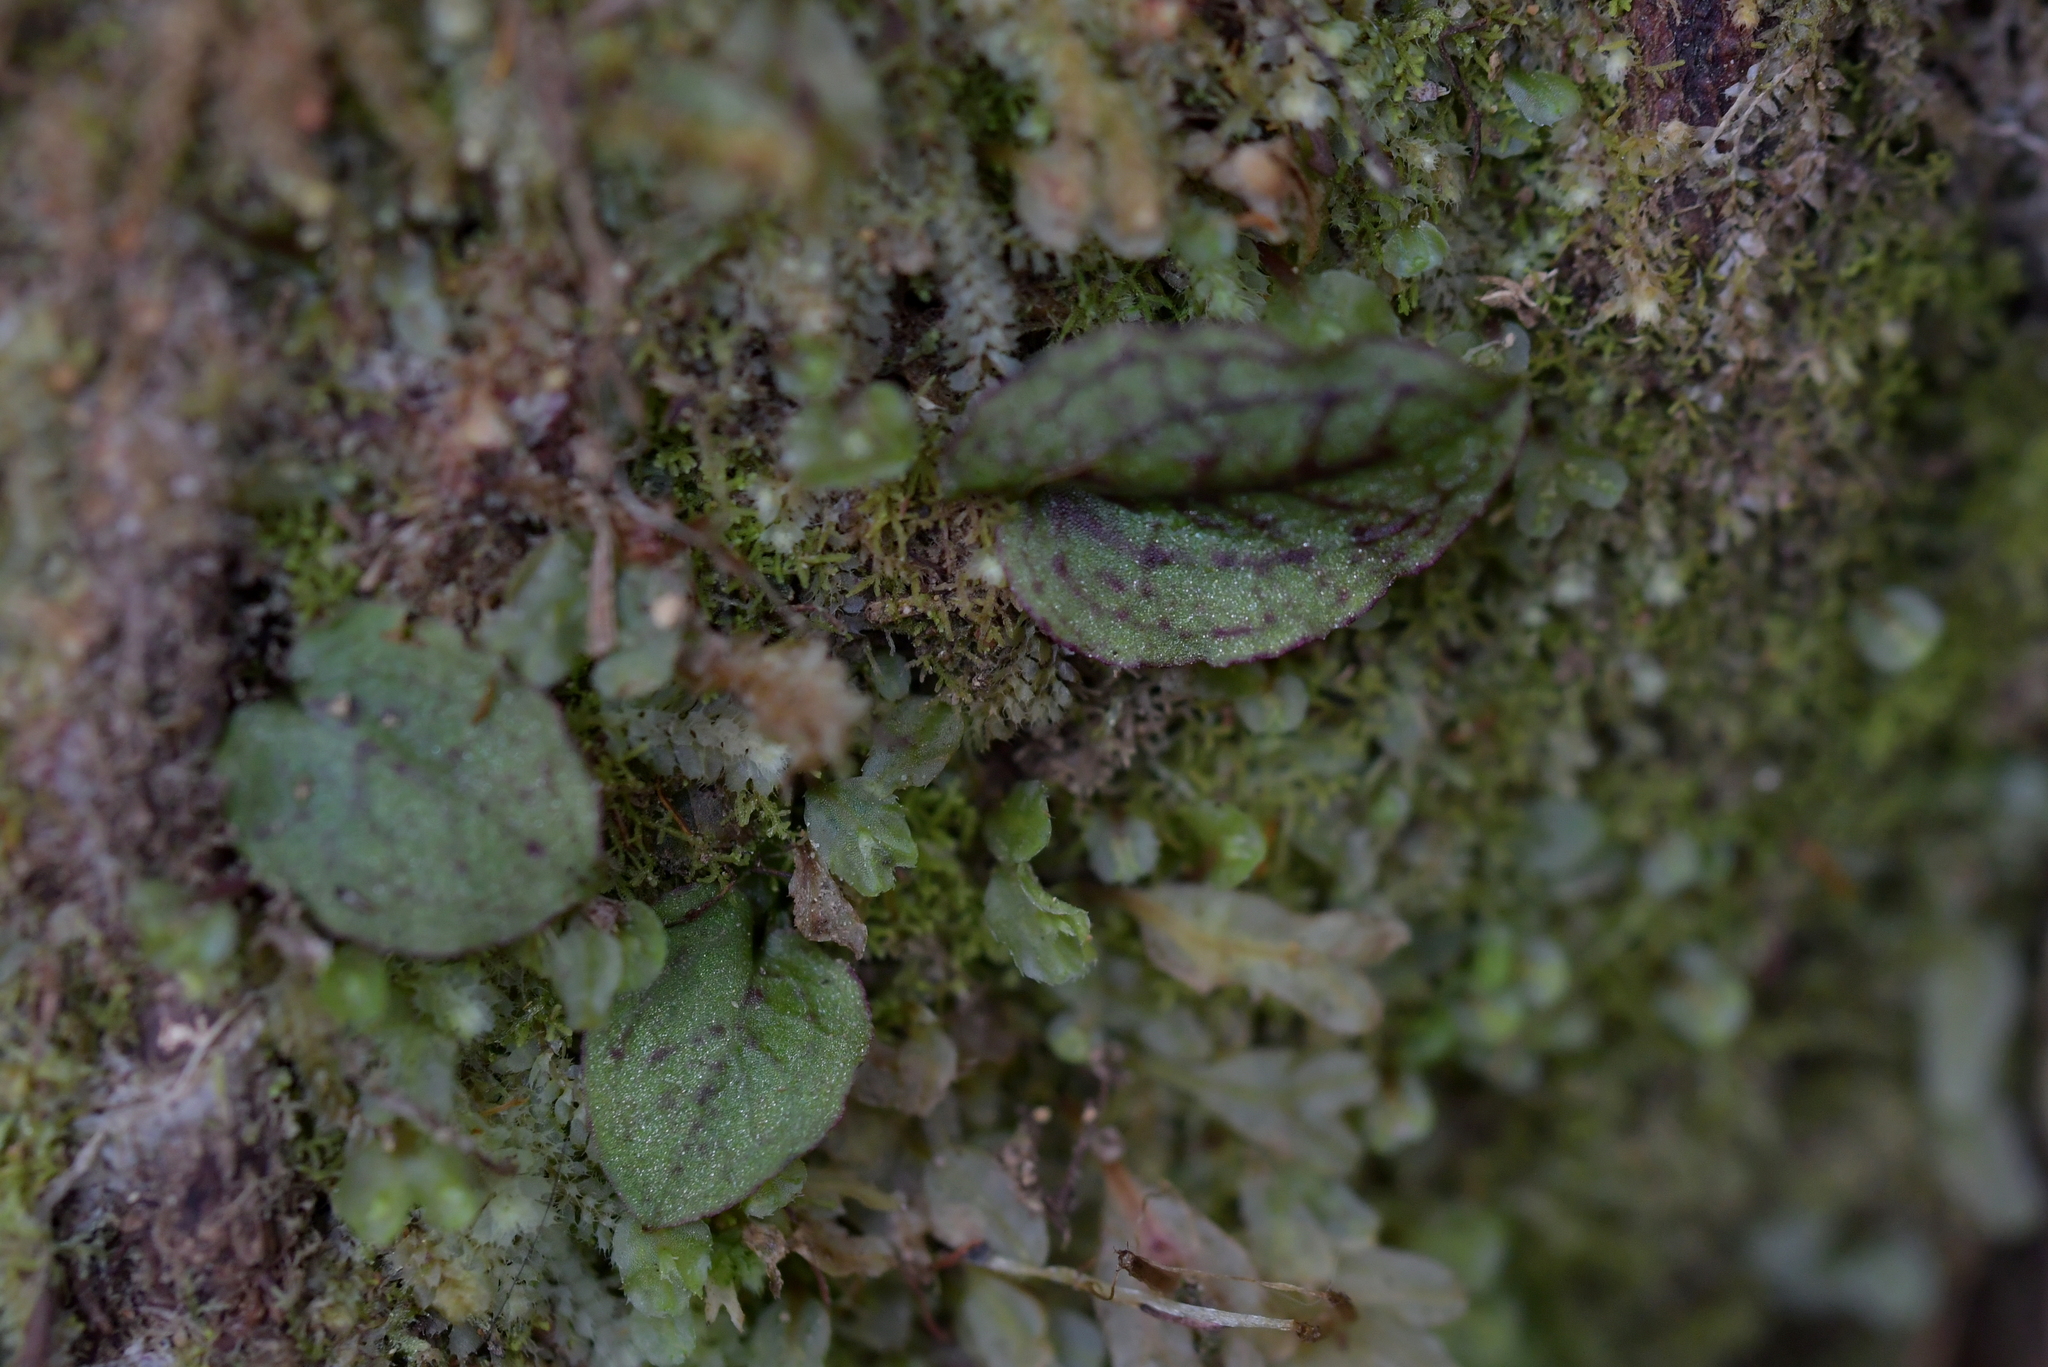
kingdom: Plantae
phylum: Tracheophyta
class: Liliopsida
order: Asparagales
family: Orchidaceae
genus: Corybas
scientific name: Corybas oblongus
